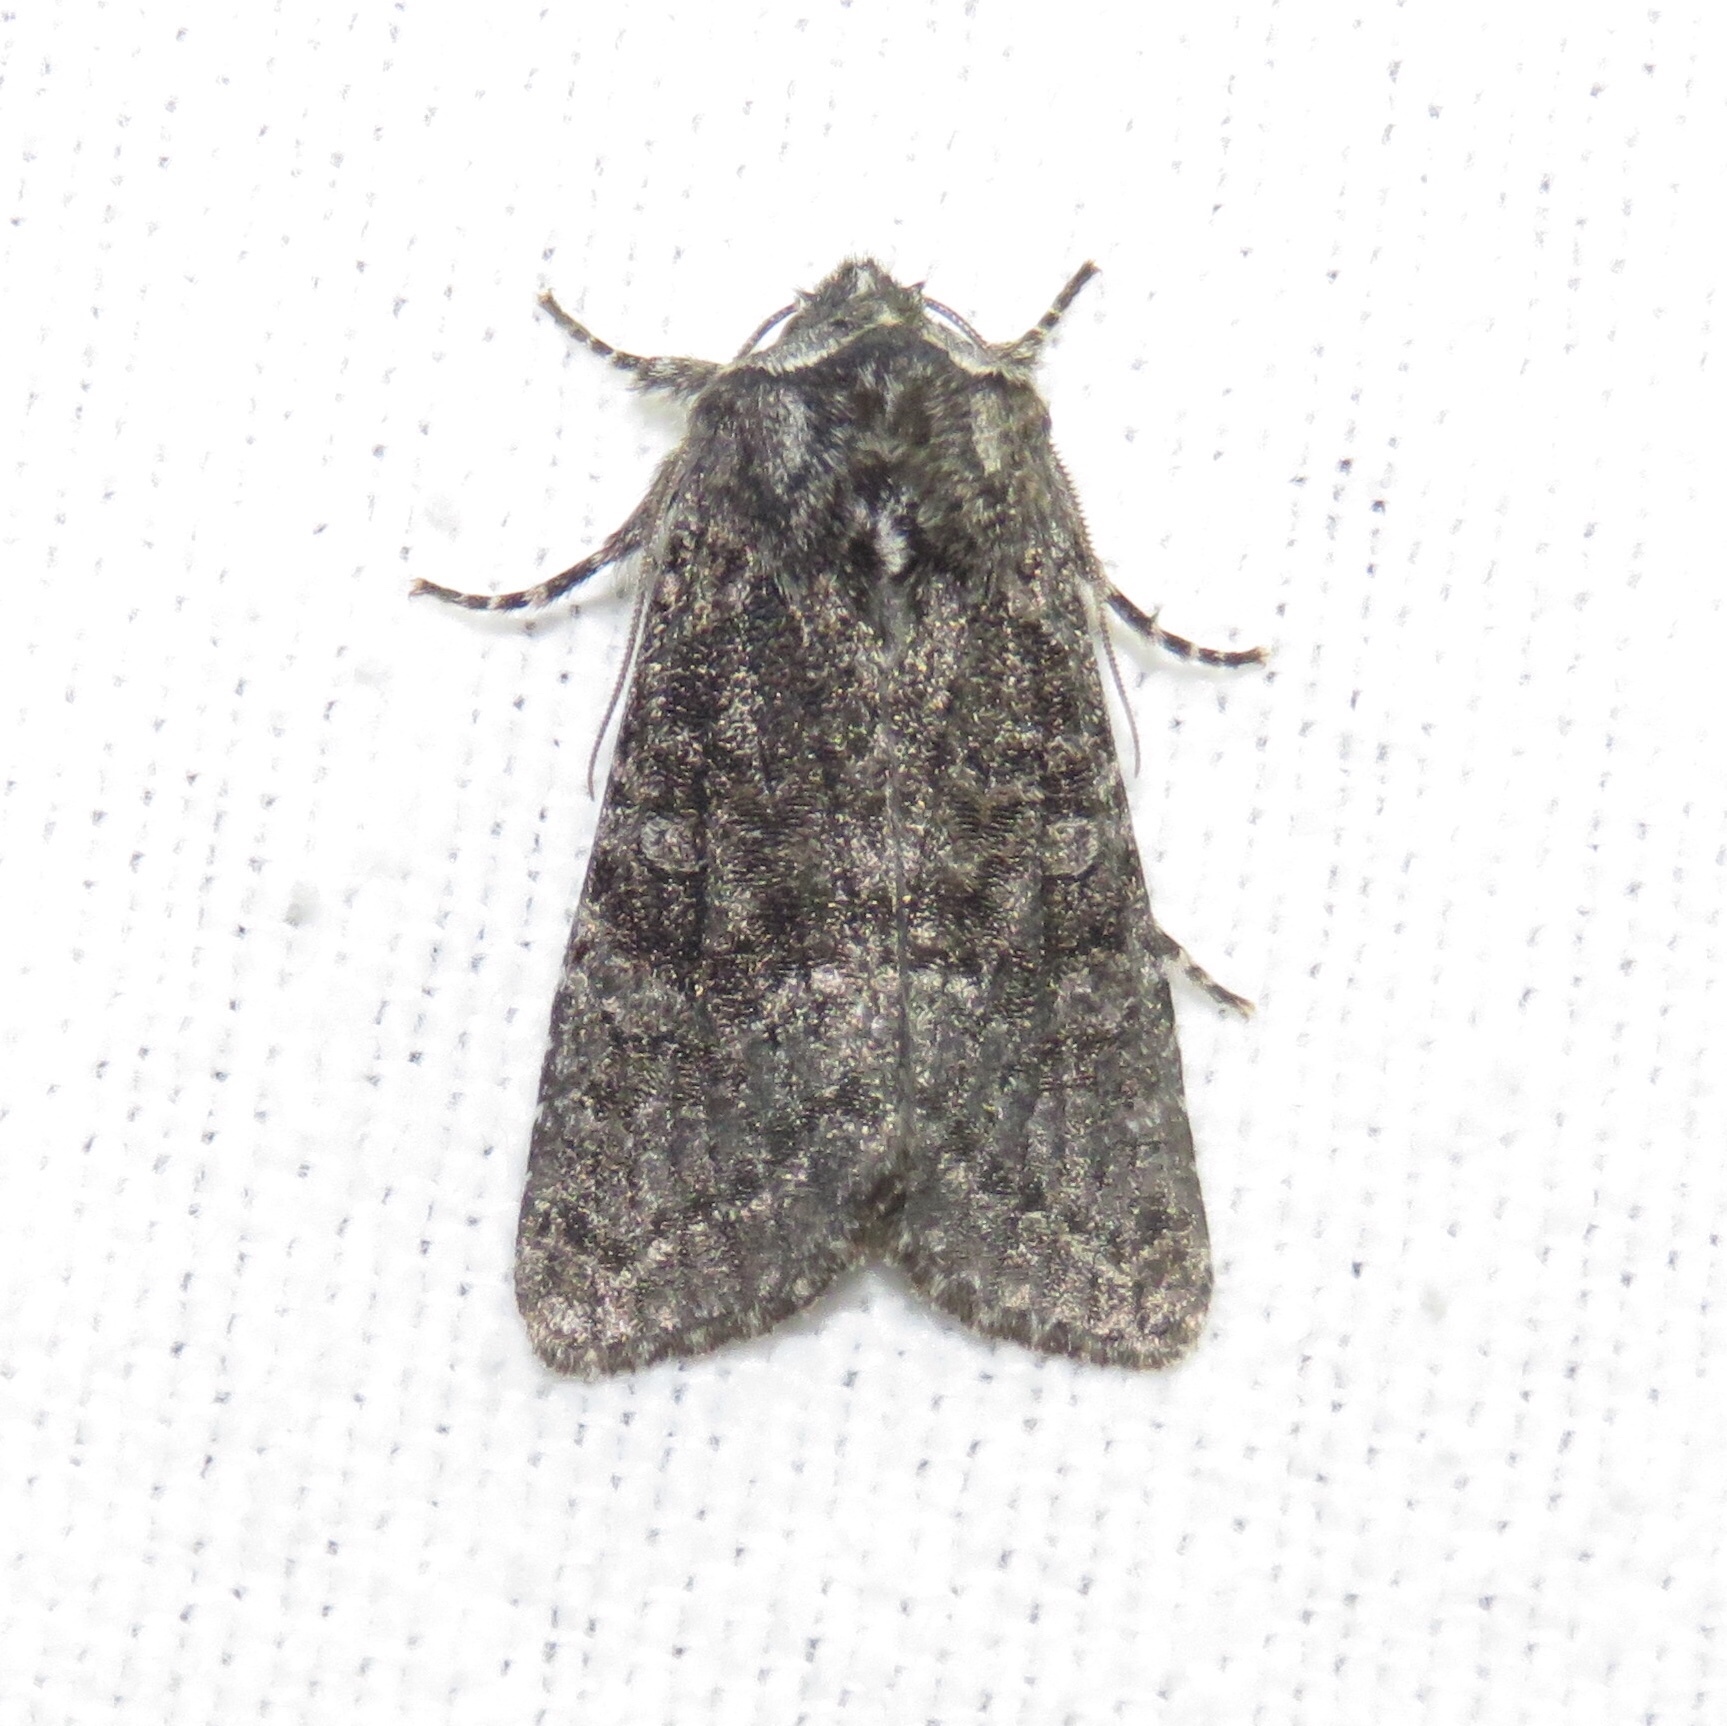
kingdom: Animalia
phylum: Arthropoda
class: Insecta
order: Lepidoptera
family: Noctuidae
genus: Egira
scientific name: Egira dolosa
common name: Lined black aspen cat.
